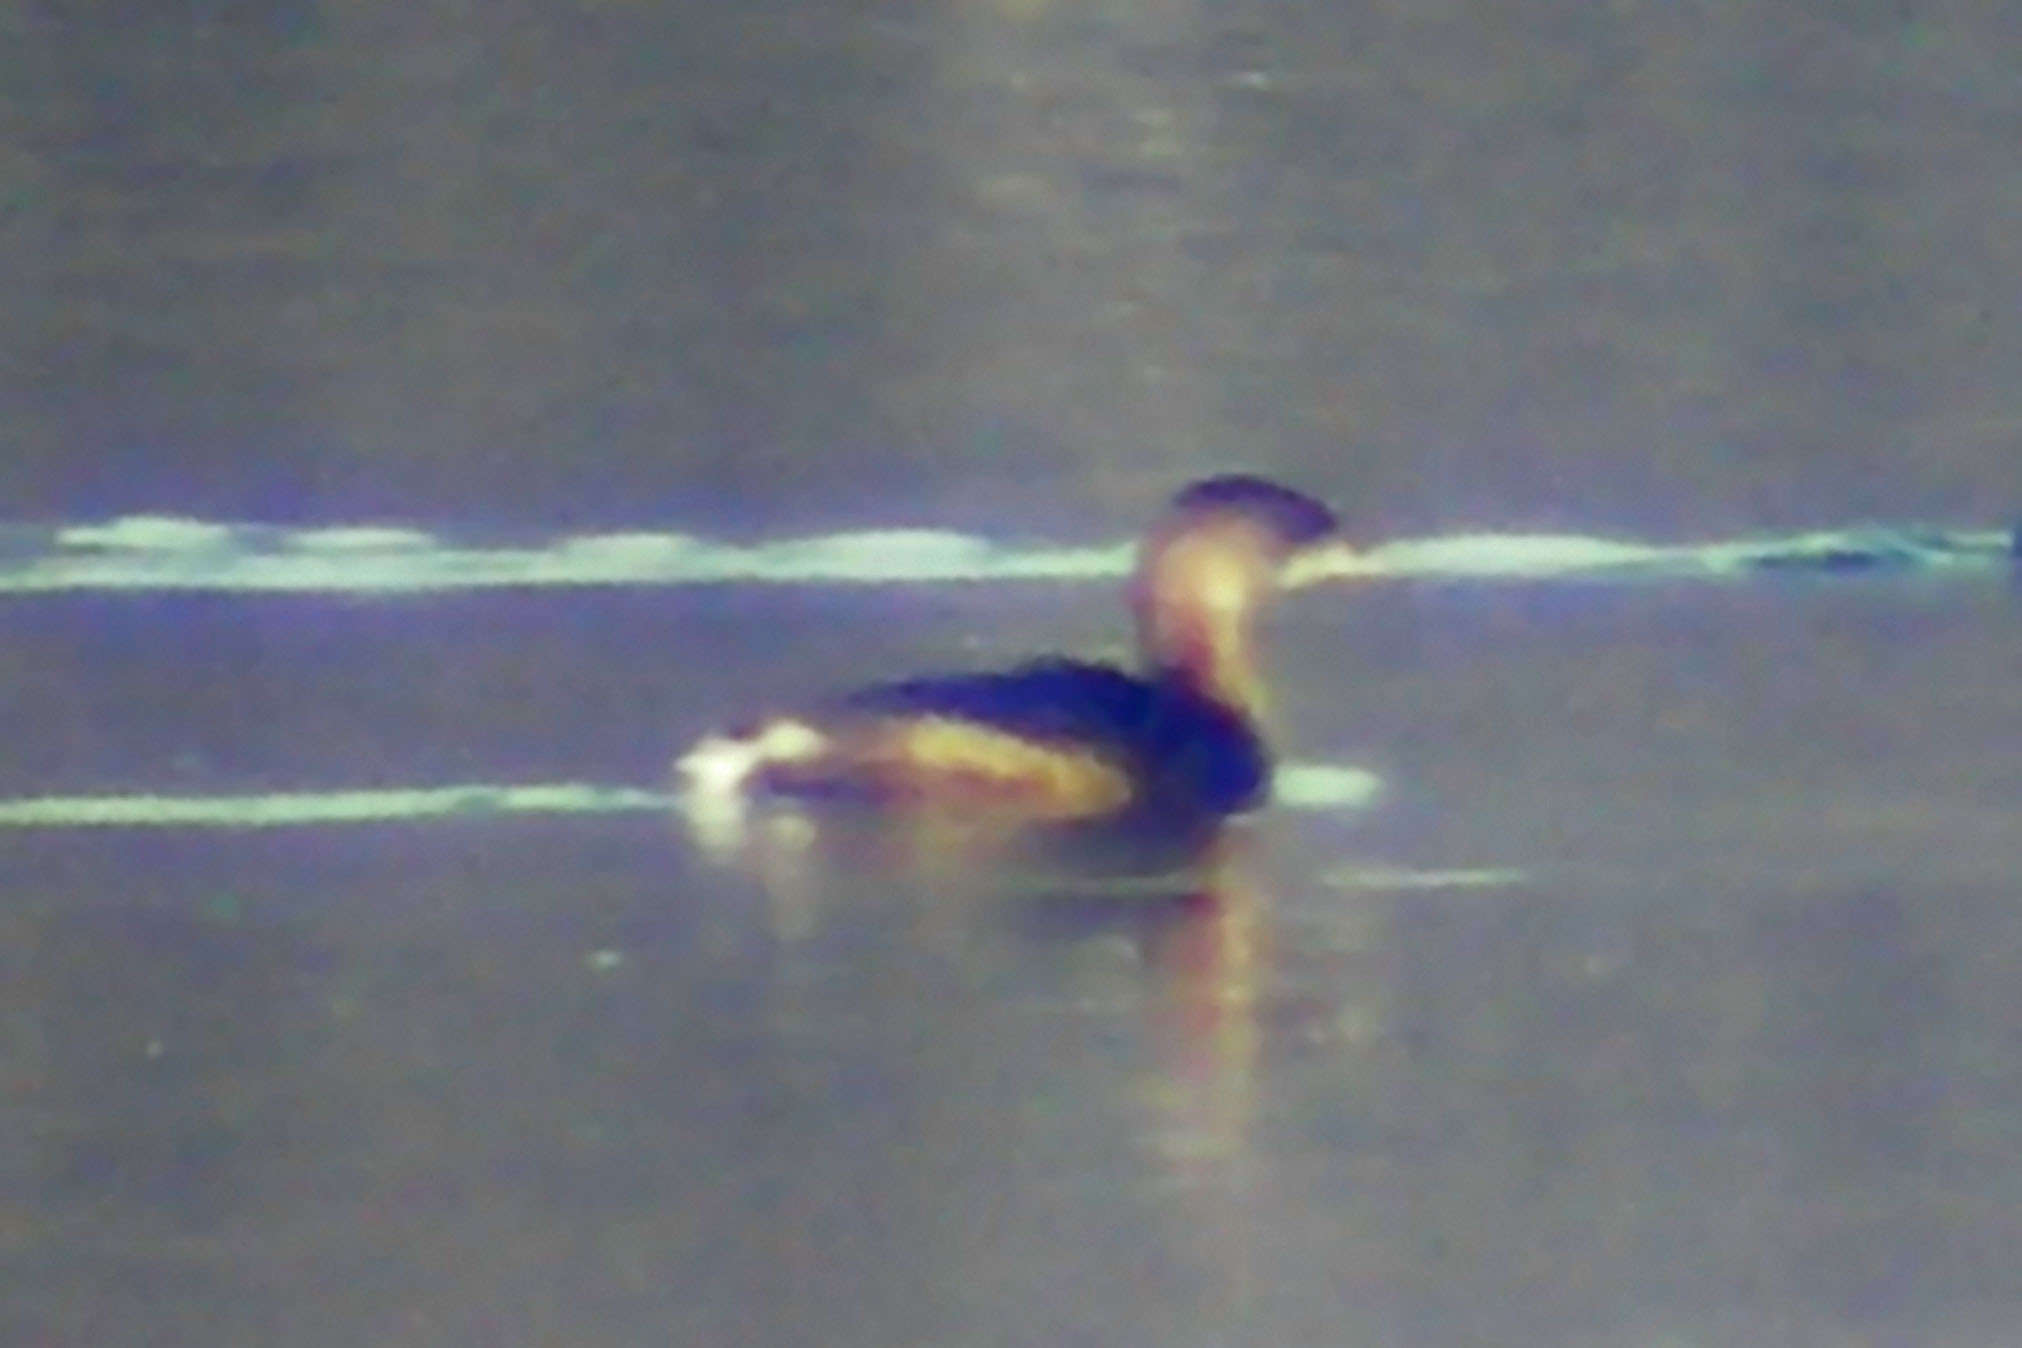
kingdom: Animalia
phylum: Chordata
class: Aves
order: Podicipediformes
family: Podicipedidae
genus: Podilymbus
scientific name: Podilymbus podiceps
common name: Pied-billed grebe
